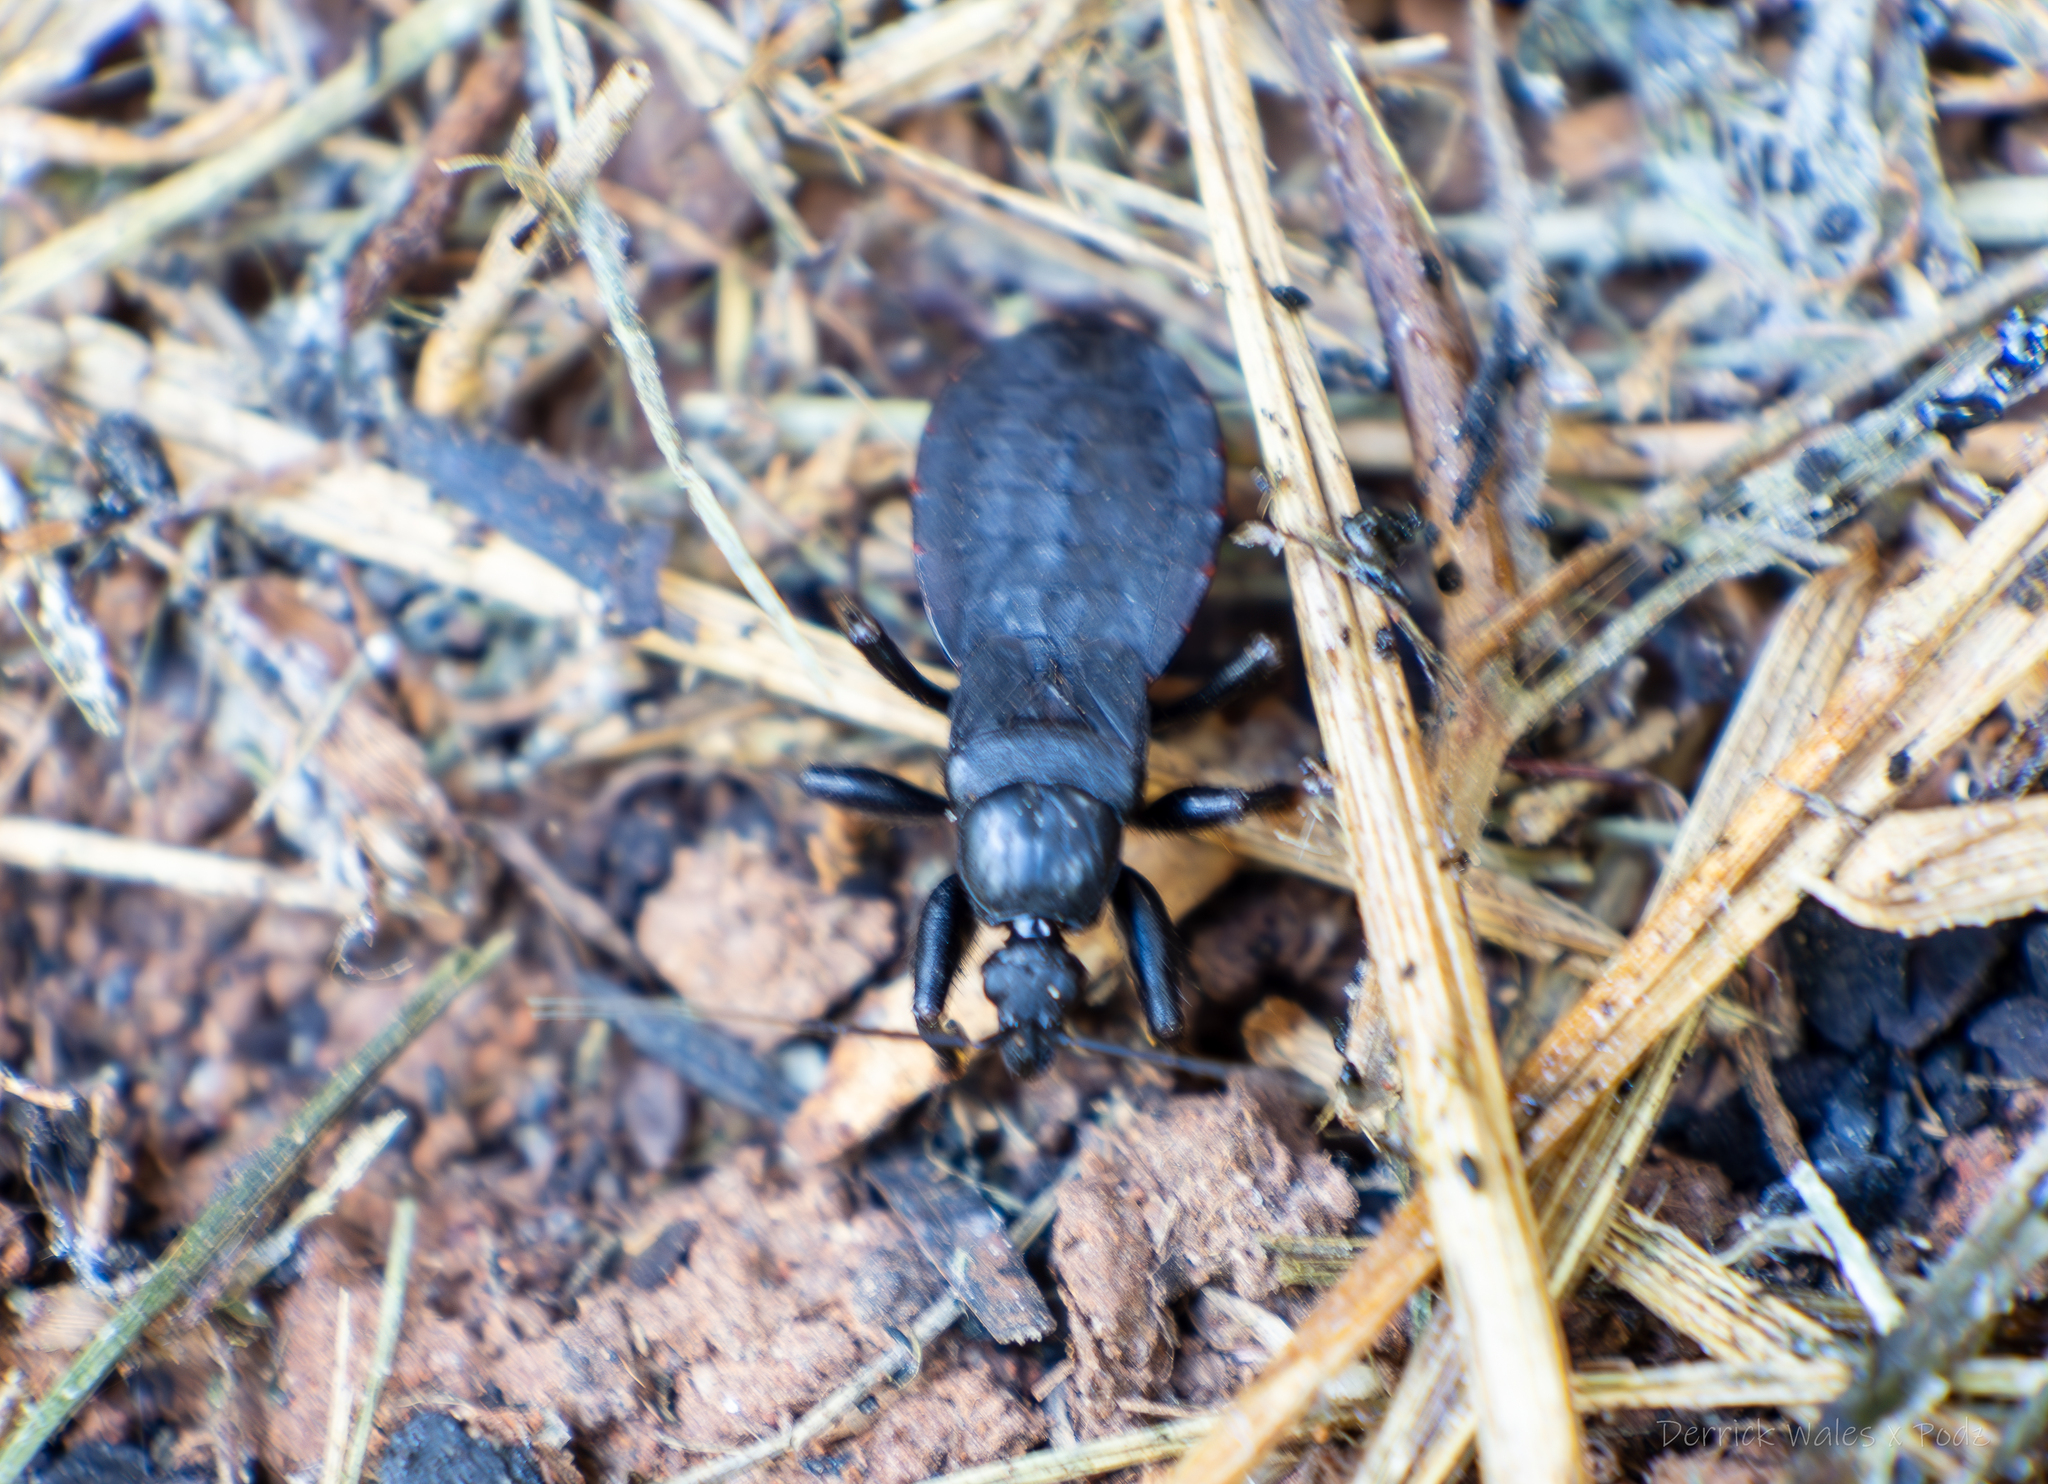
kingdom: Animalia
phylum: Arthropoda
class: Insecta
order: Hemiptera
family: Reduviidae
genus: Melanolestes
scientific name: Melanolestes picipes
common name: Assassin bug
